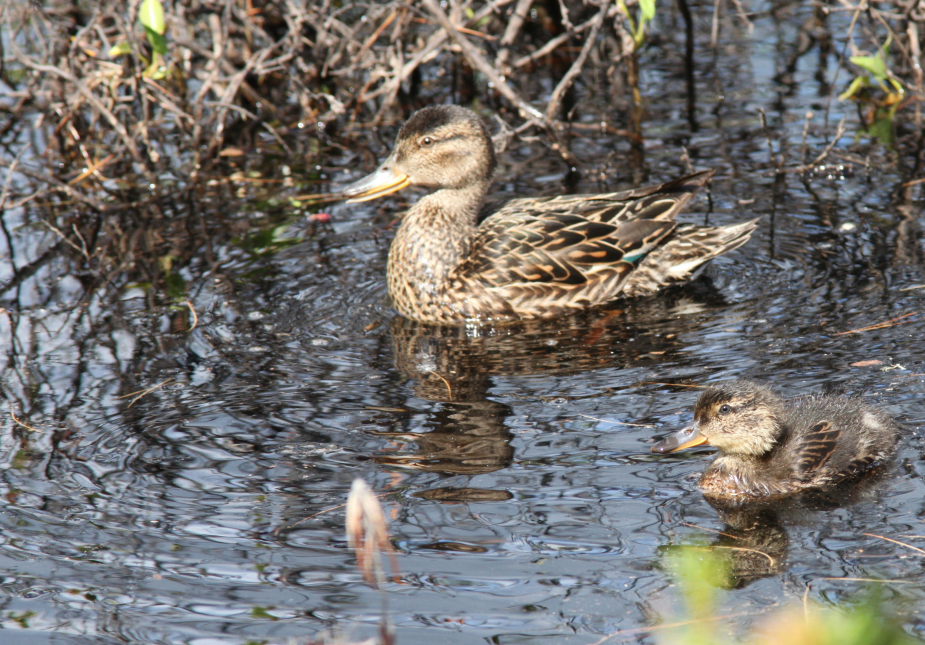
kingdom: Animalia
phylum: Chordata
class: Aves
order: Anseriformes
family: Anatidae
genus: Anas
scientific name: Anas platyrhynchos
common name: Mallard
